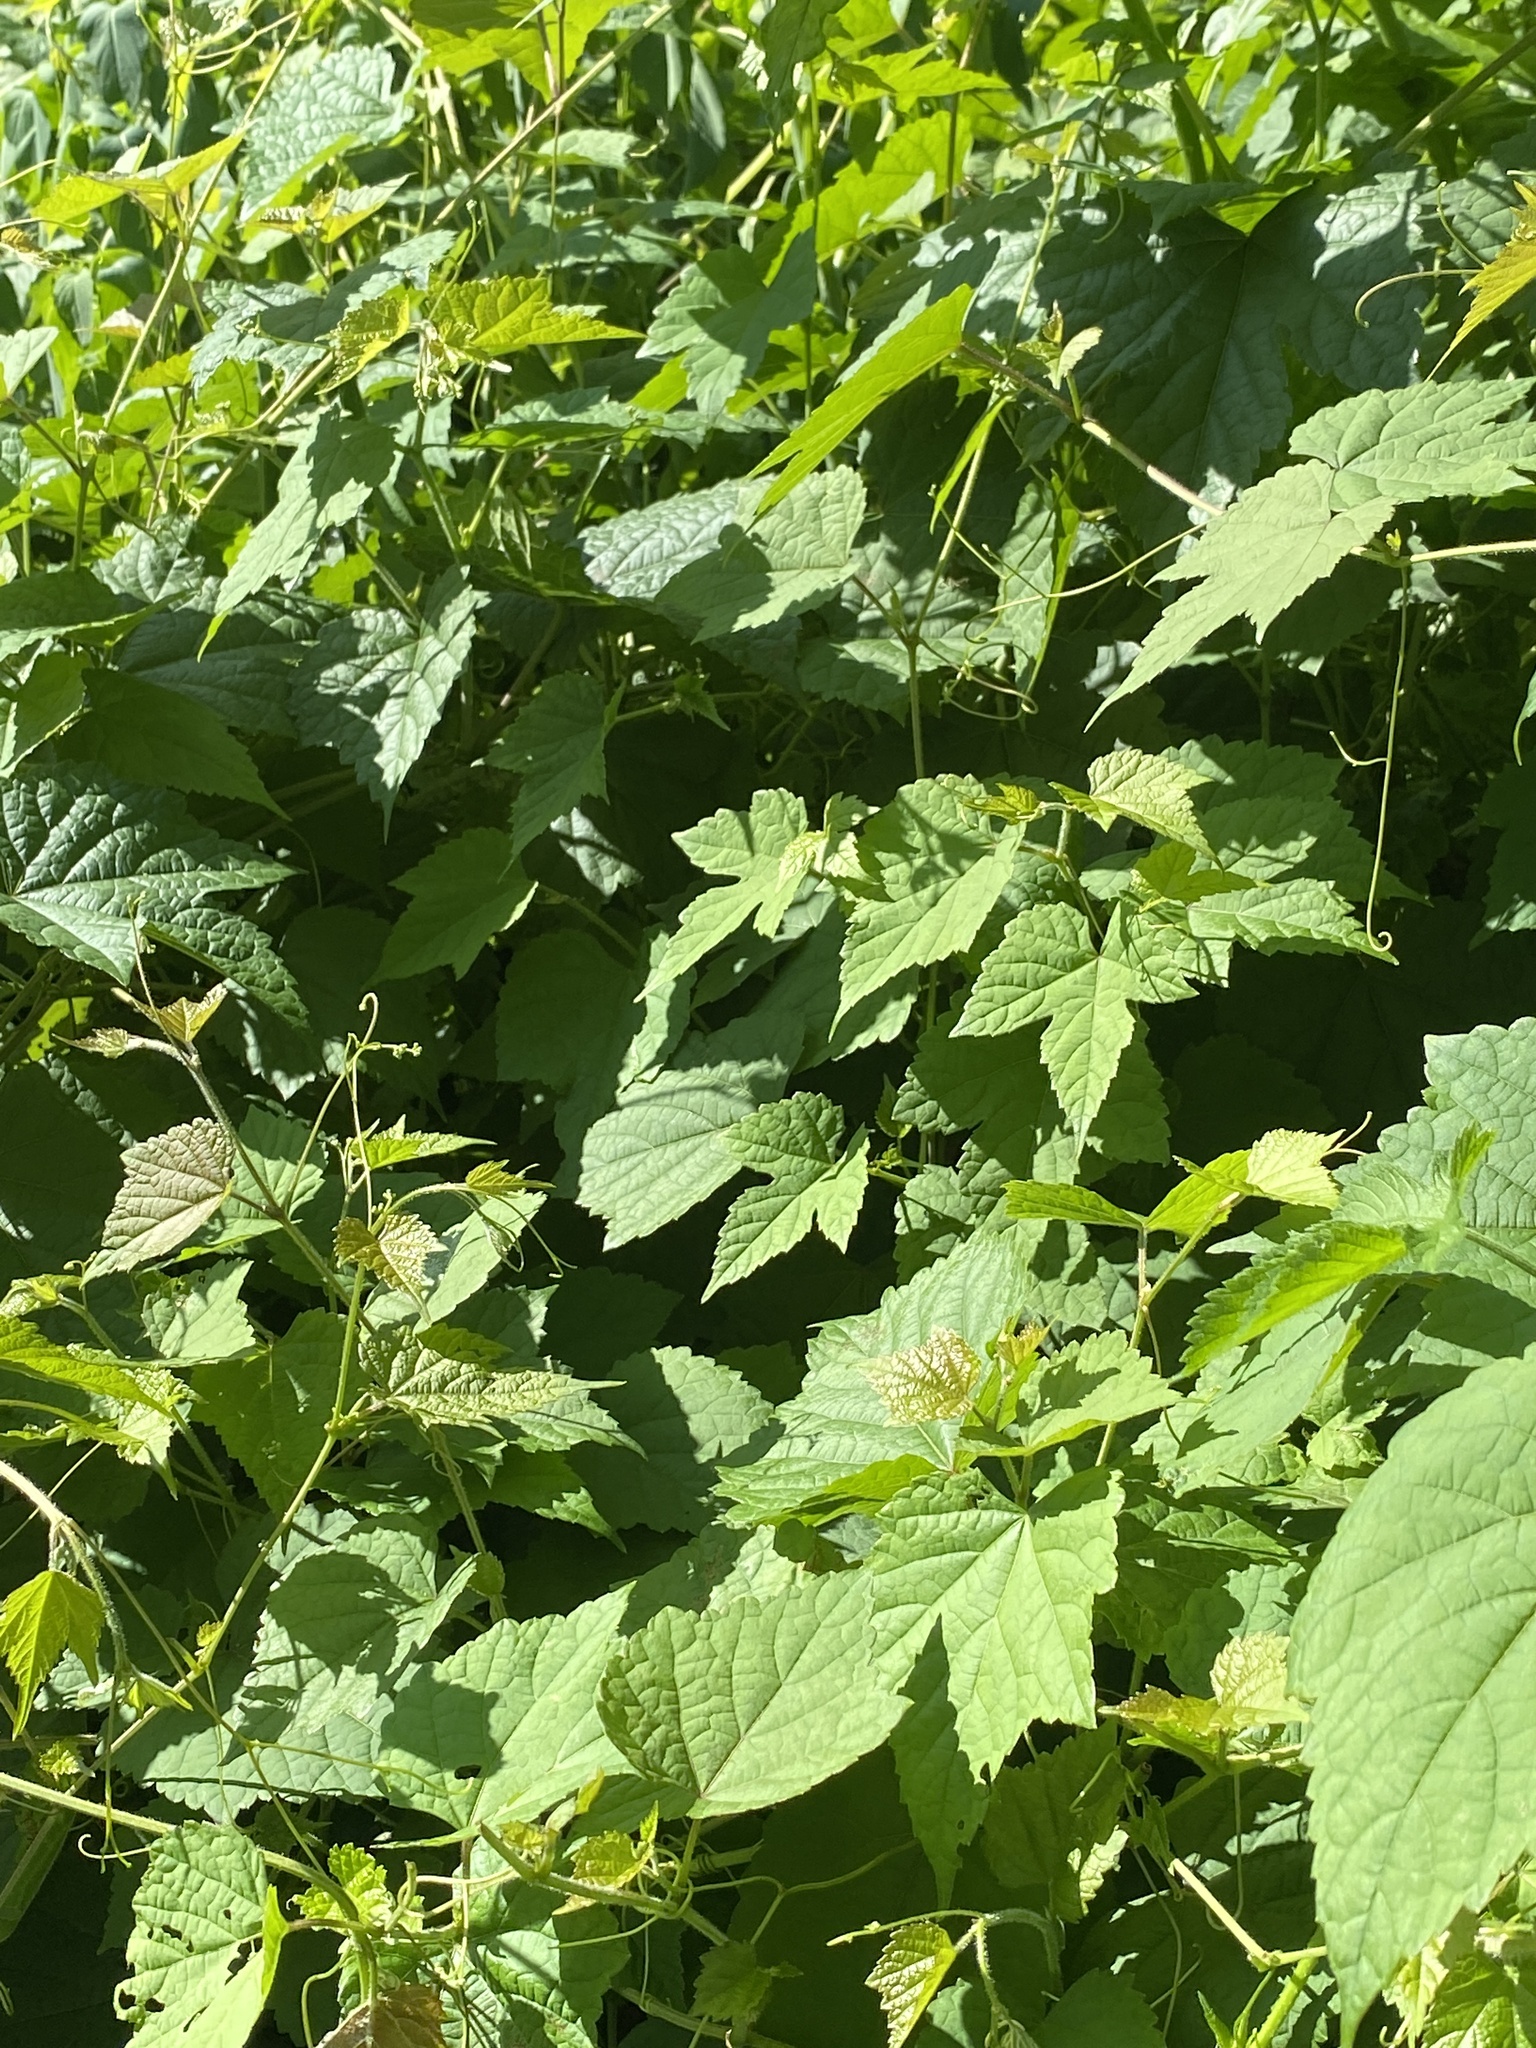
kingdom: Plantae
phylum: Tracheophyta
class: Magnoliopsida
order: Vitales
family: Vitaceae
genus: Ampelopsis
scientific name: Ampelopsis glandulosa
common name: Amur peppervine
